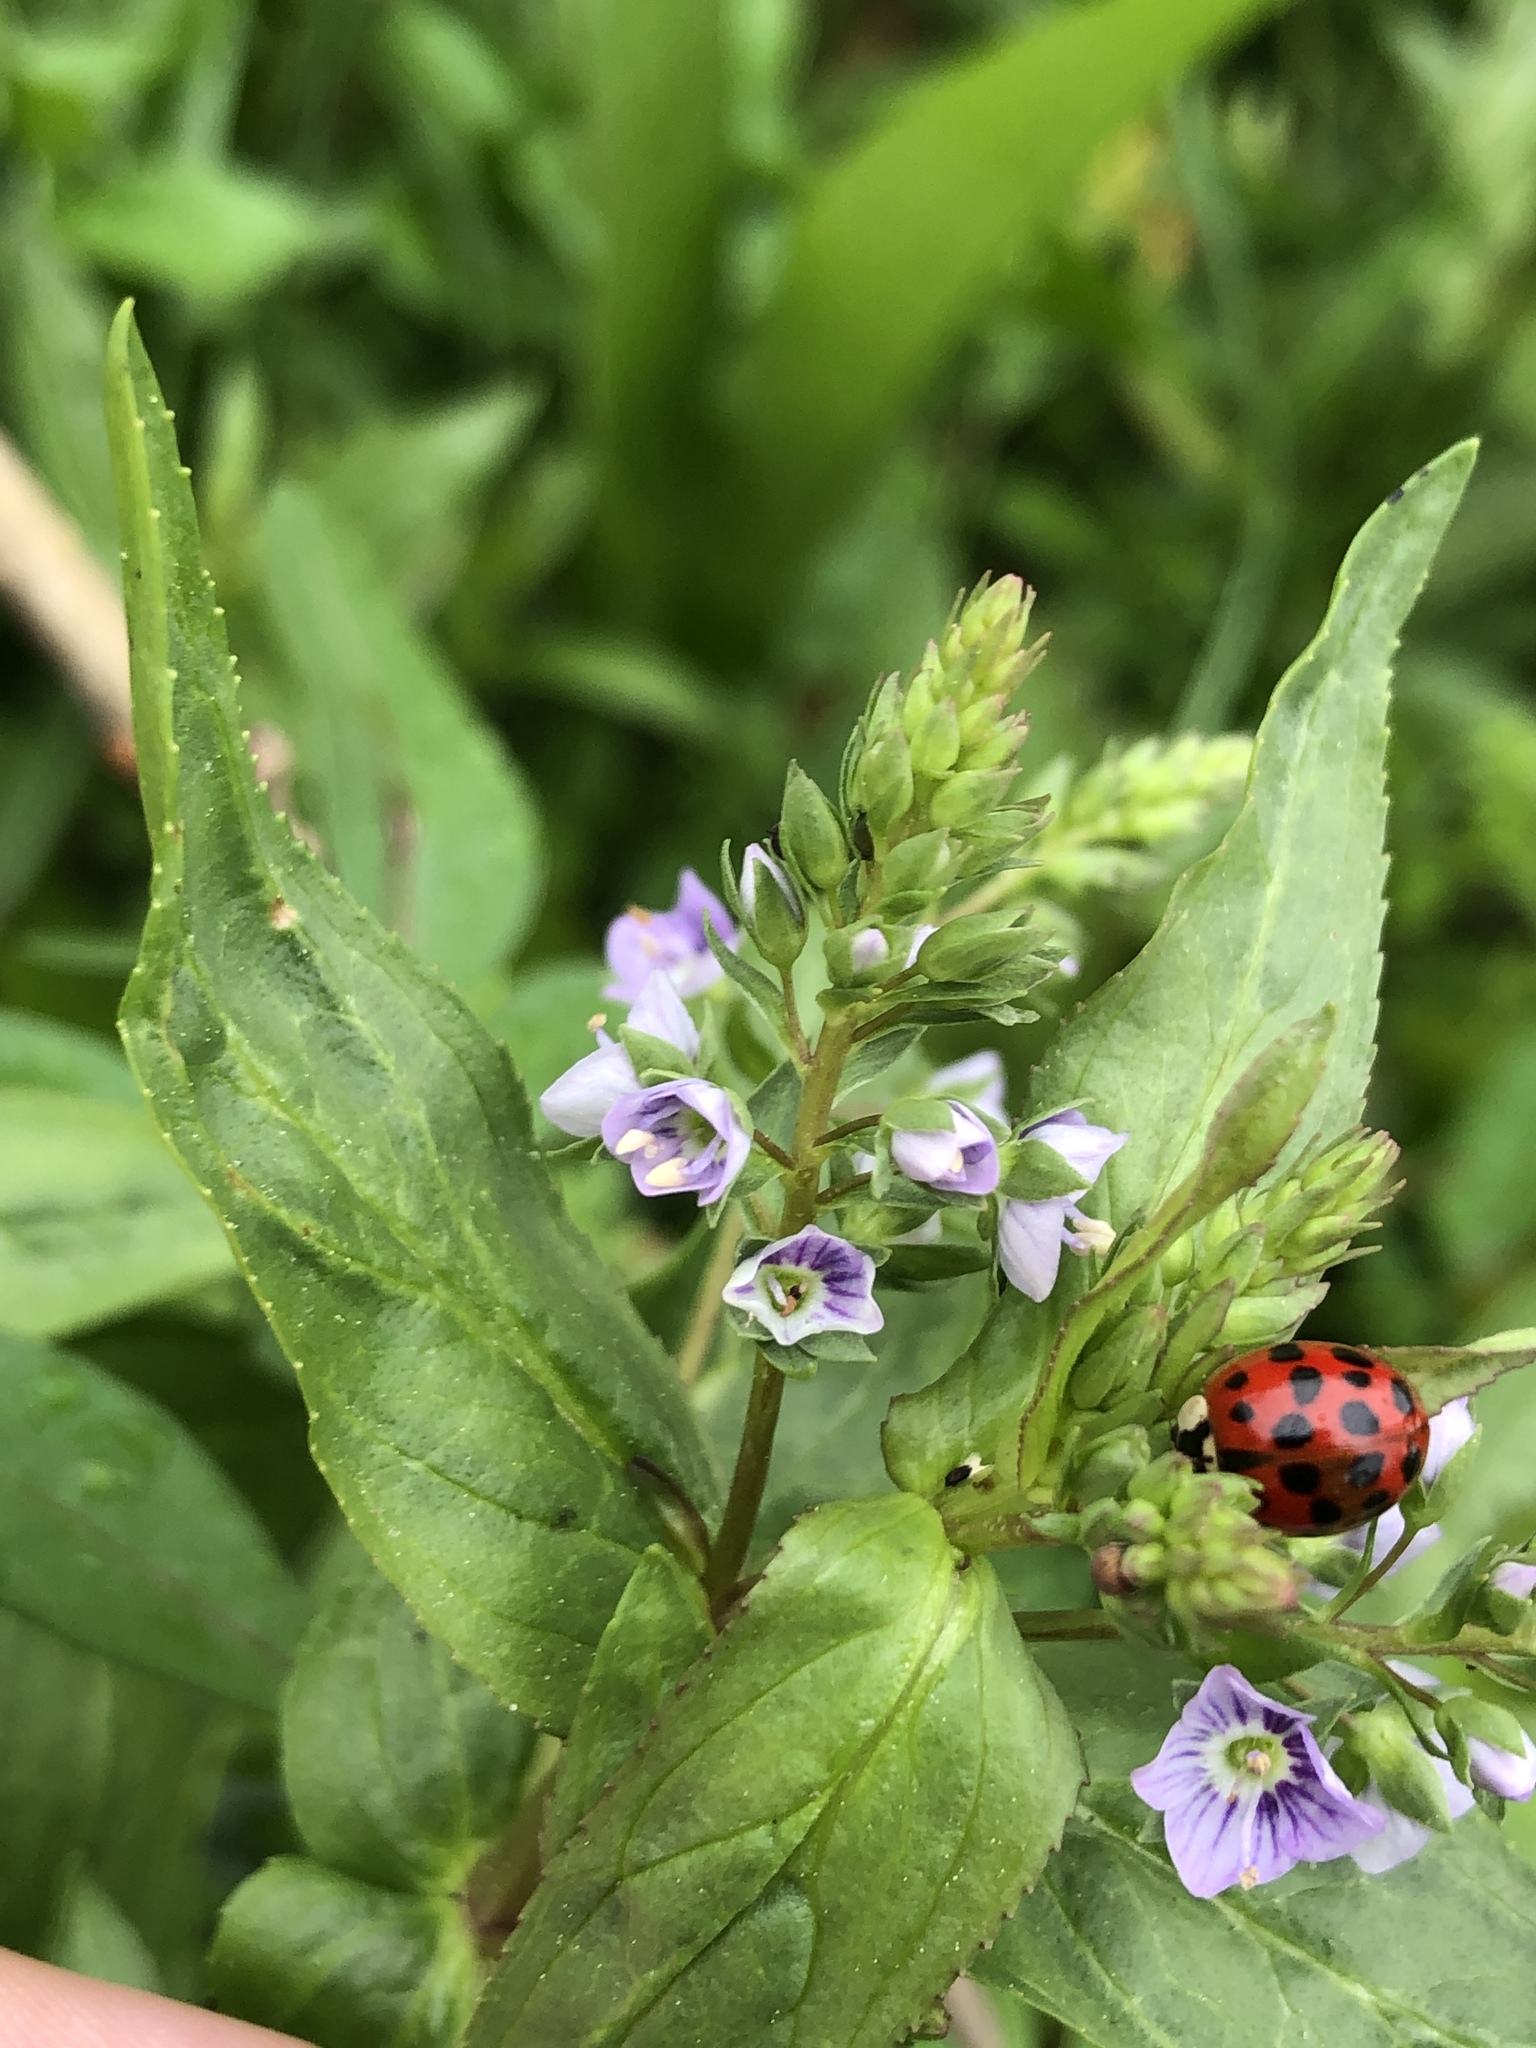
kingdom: Animalia
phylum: Arthropoda
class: Insecta
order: Coleoptera
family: Coccinellidae
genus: Harmonia
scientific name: Harmonia axyridis
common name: Harlequin ladybird
